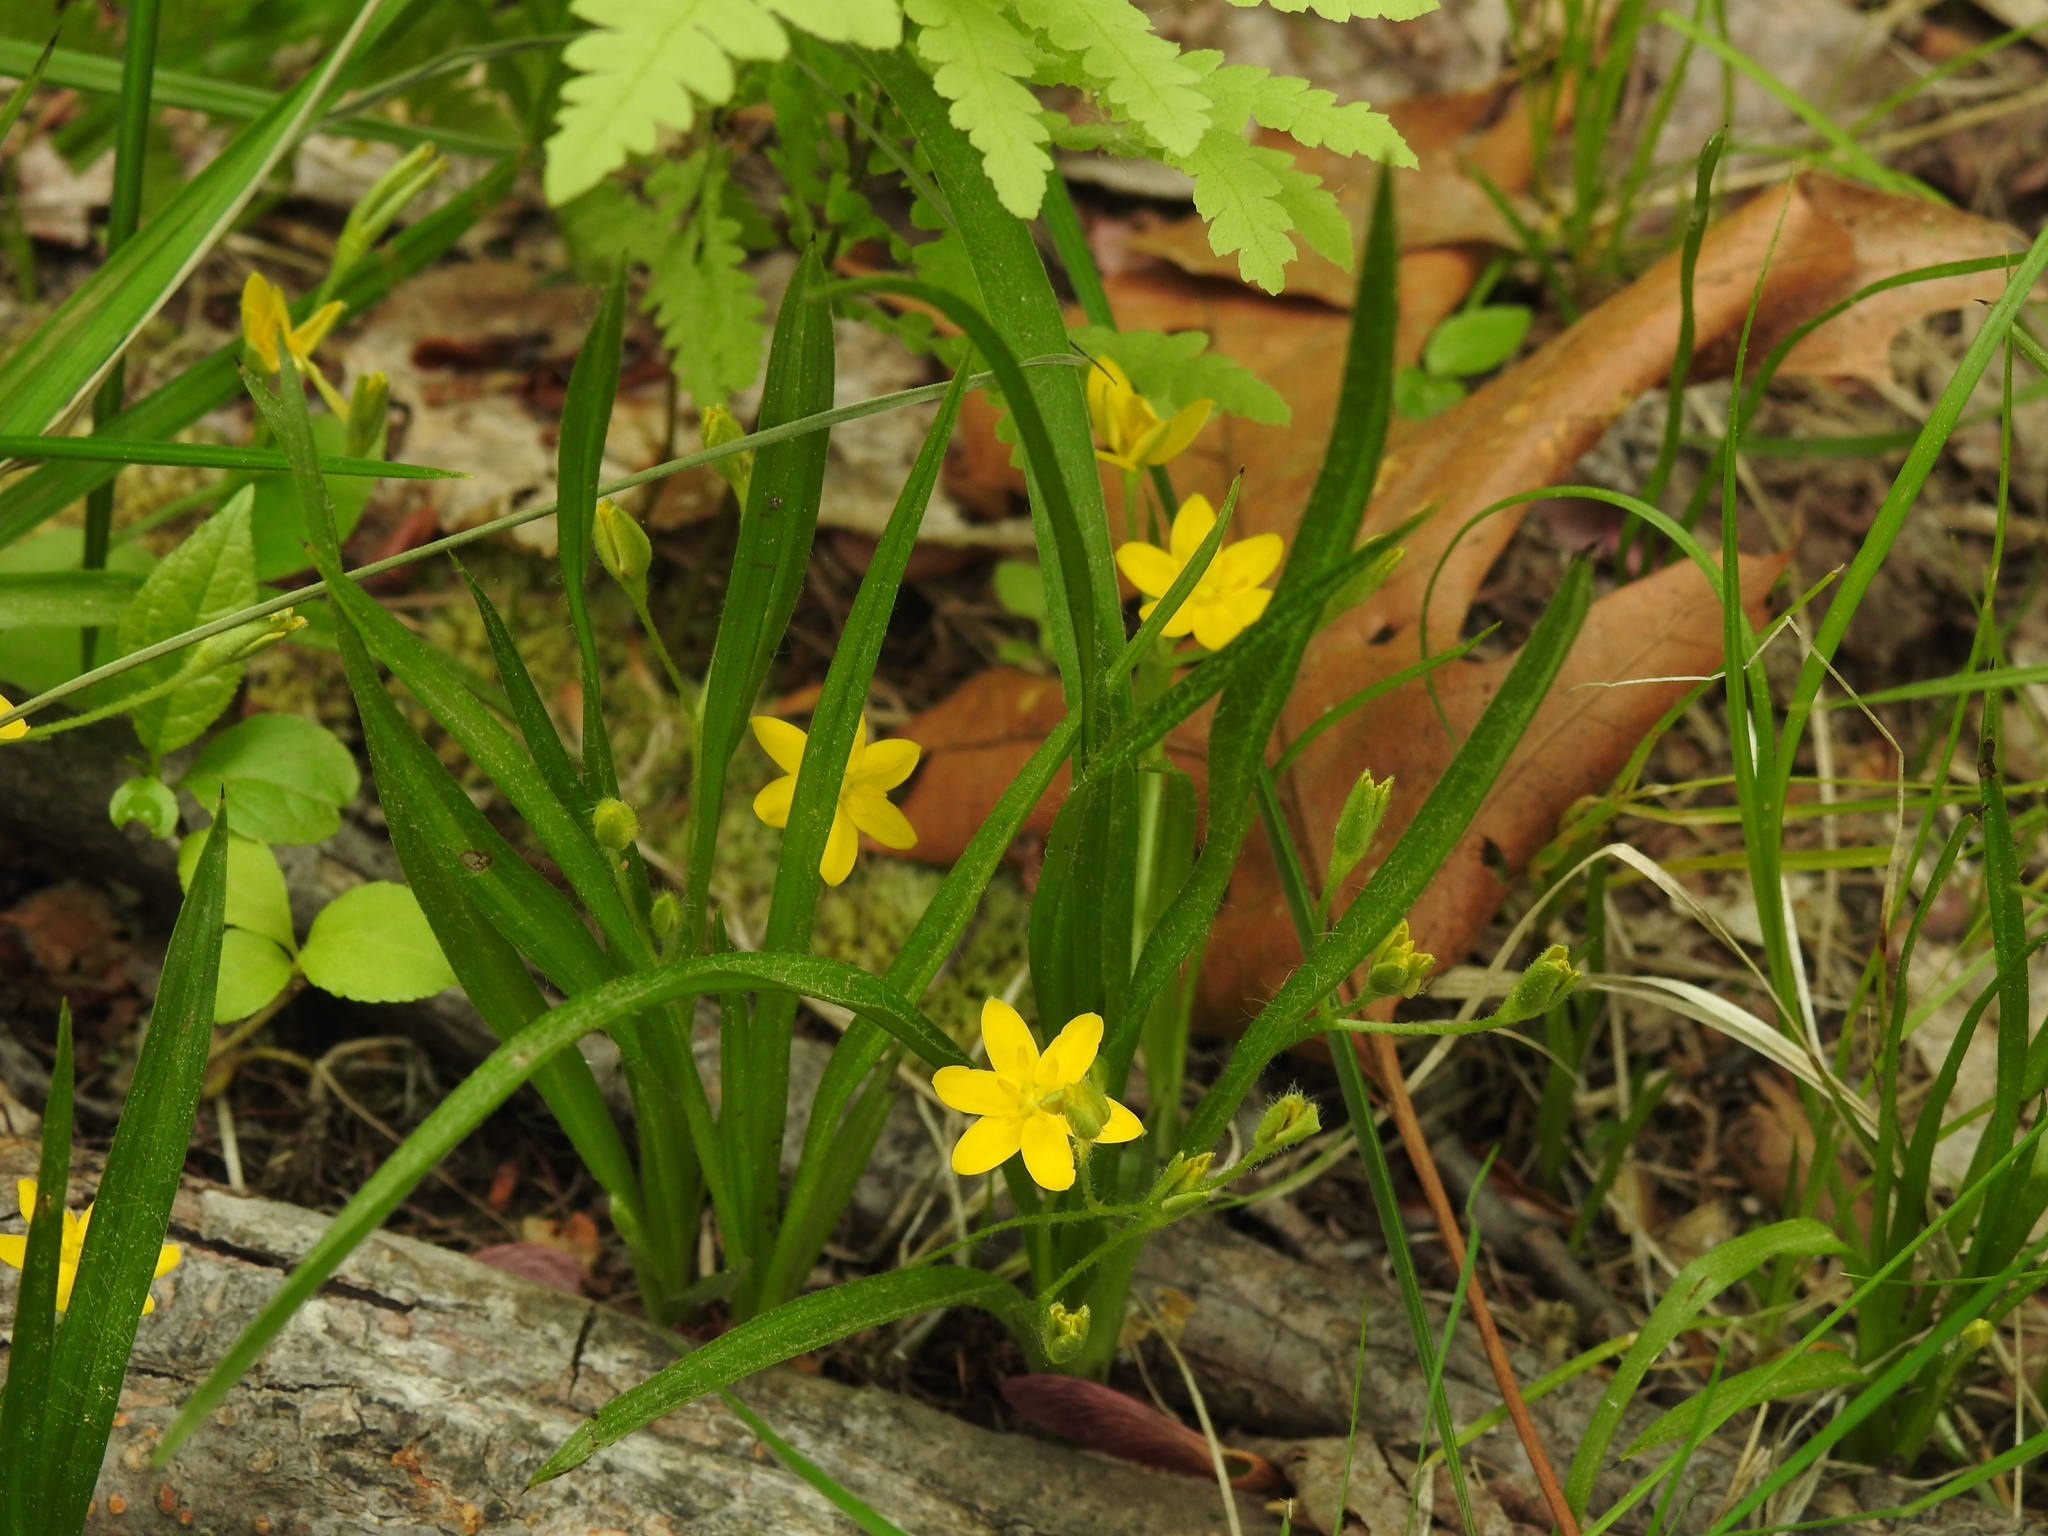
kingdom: Plantae
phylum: Tracheophyta
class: Liliopsida
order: Asparagales
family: Hypoxidaceae
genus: Hypoxis
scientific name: Hypoxis hirsuta
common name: Common goldstar
